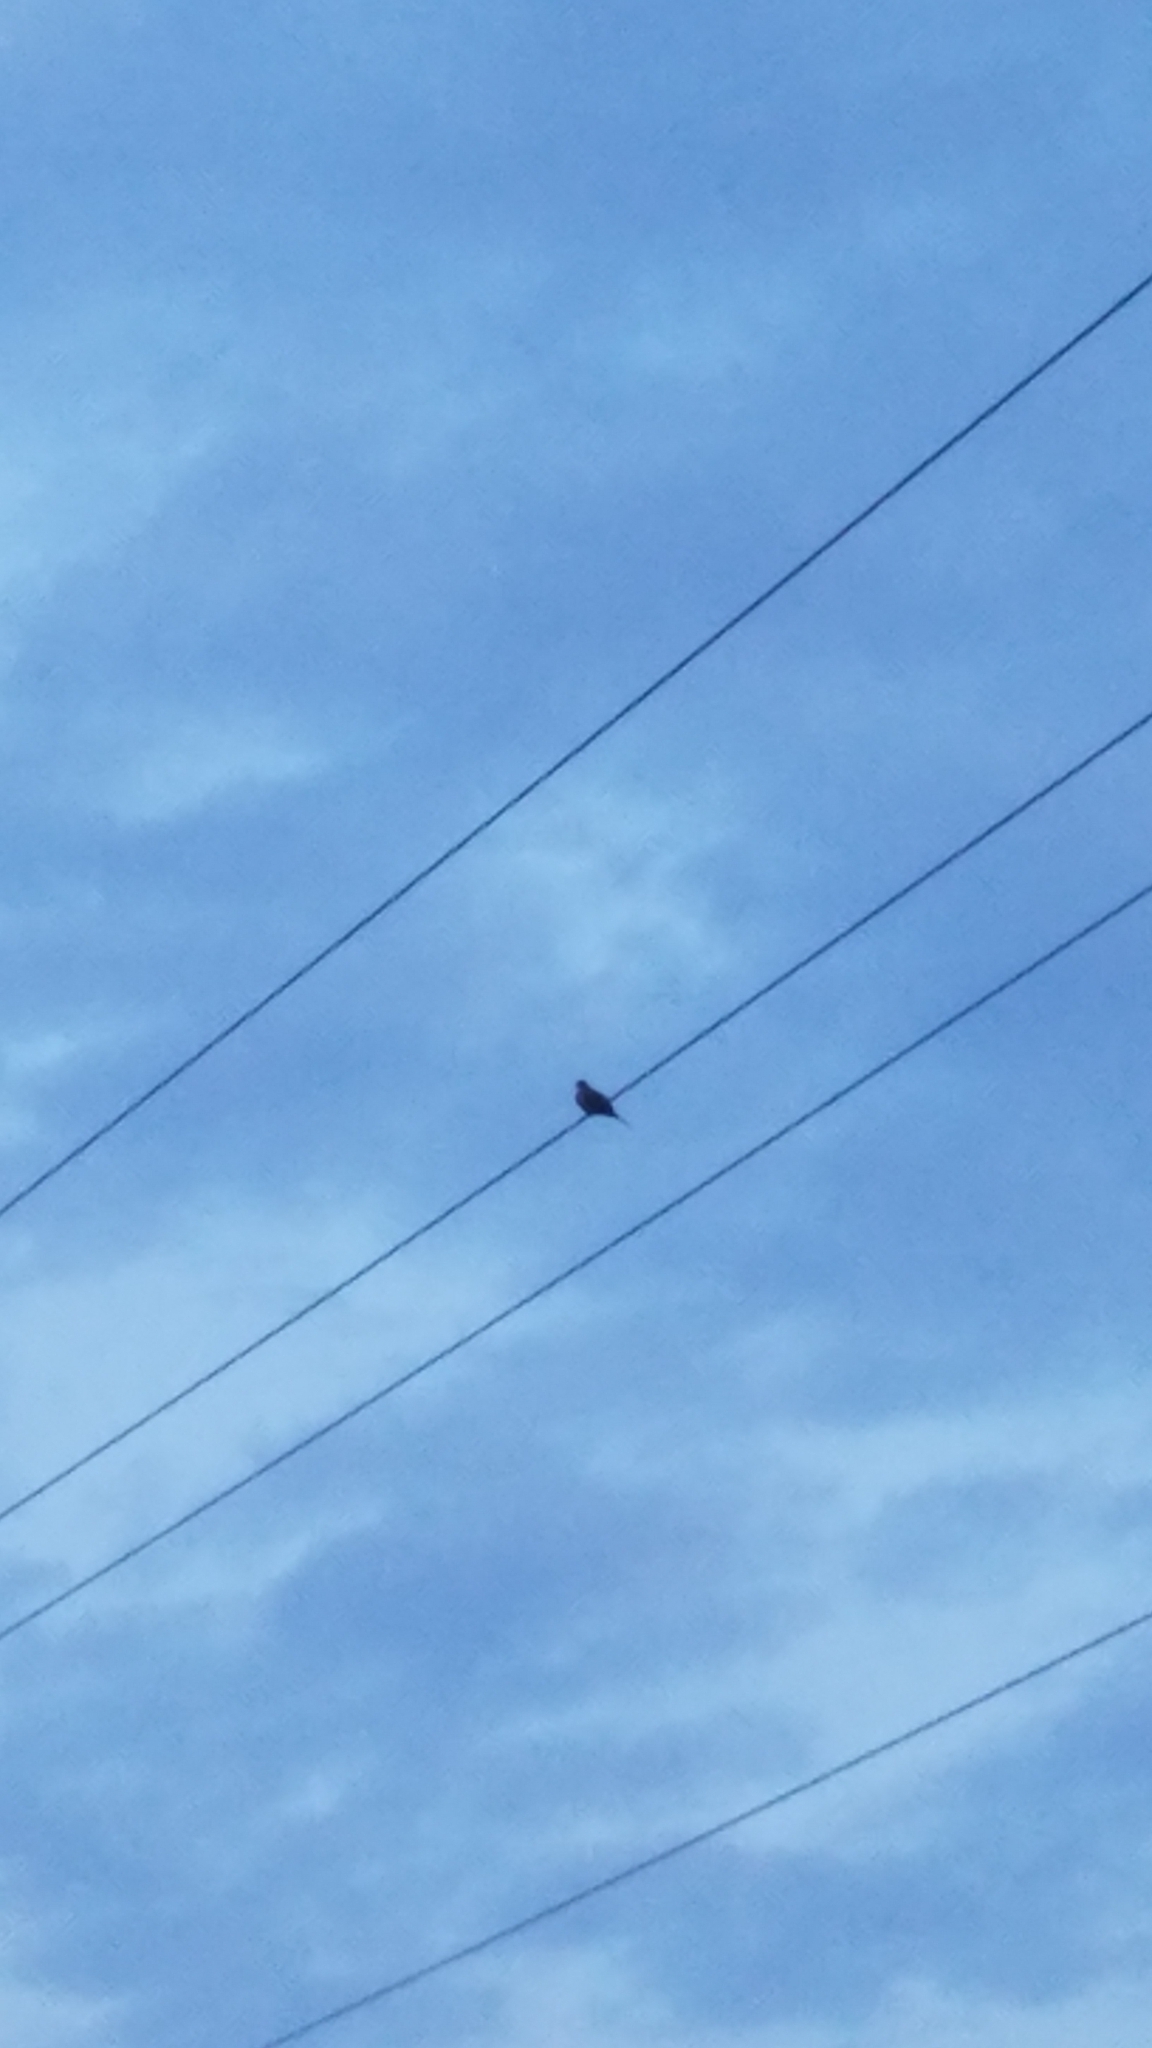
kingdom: Animalia
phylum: Chordata
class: Aves
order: Columbiformes
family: Columbidae
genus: Zenaida
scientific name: Zenaida macroura
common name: Mourning dove
